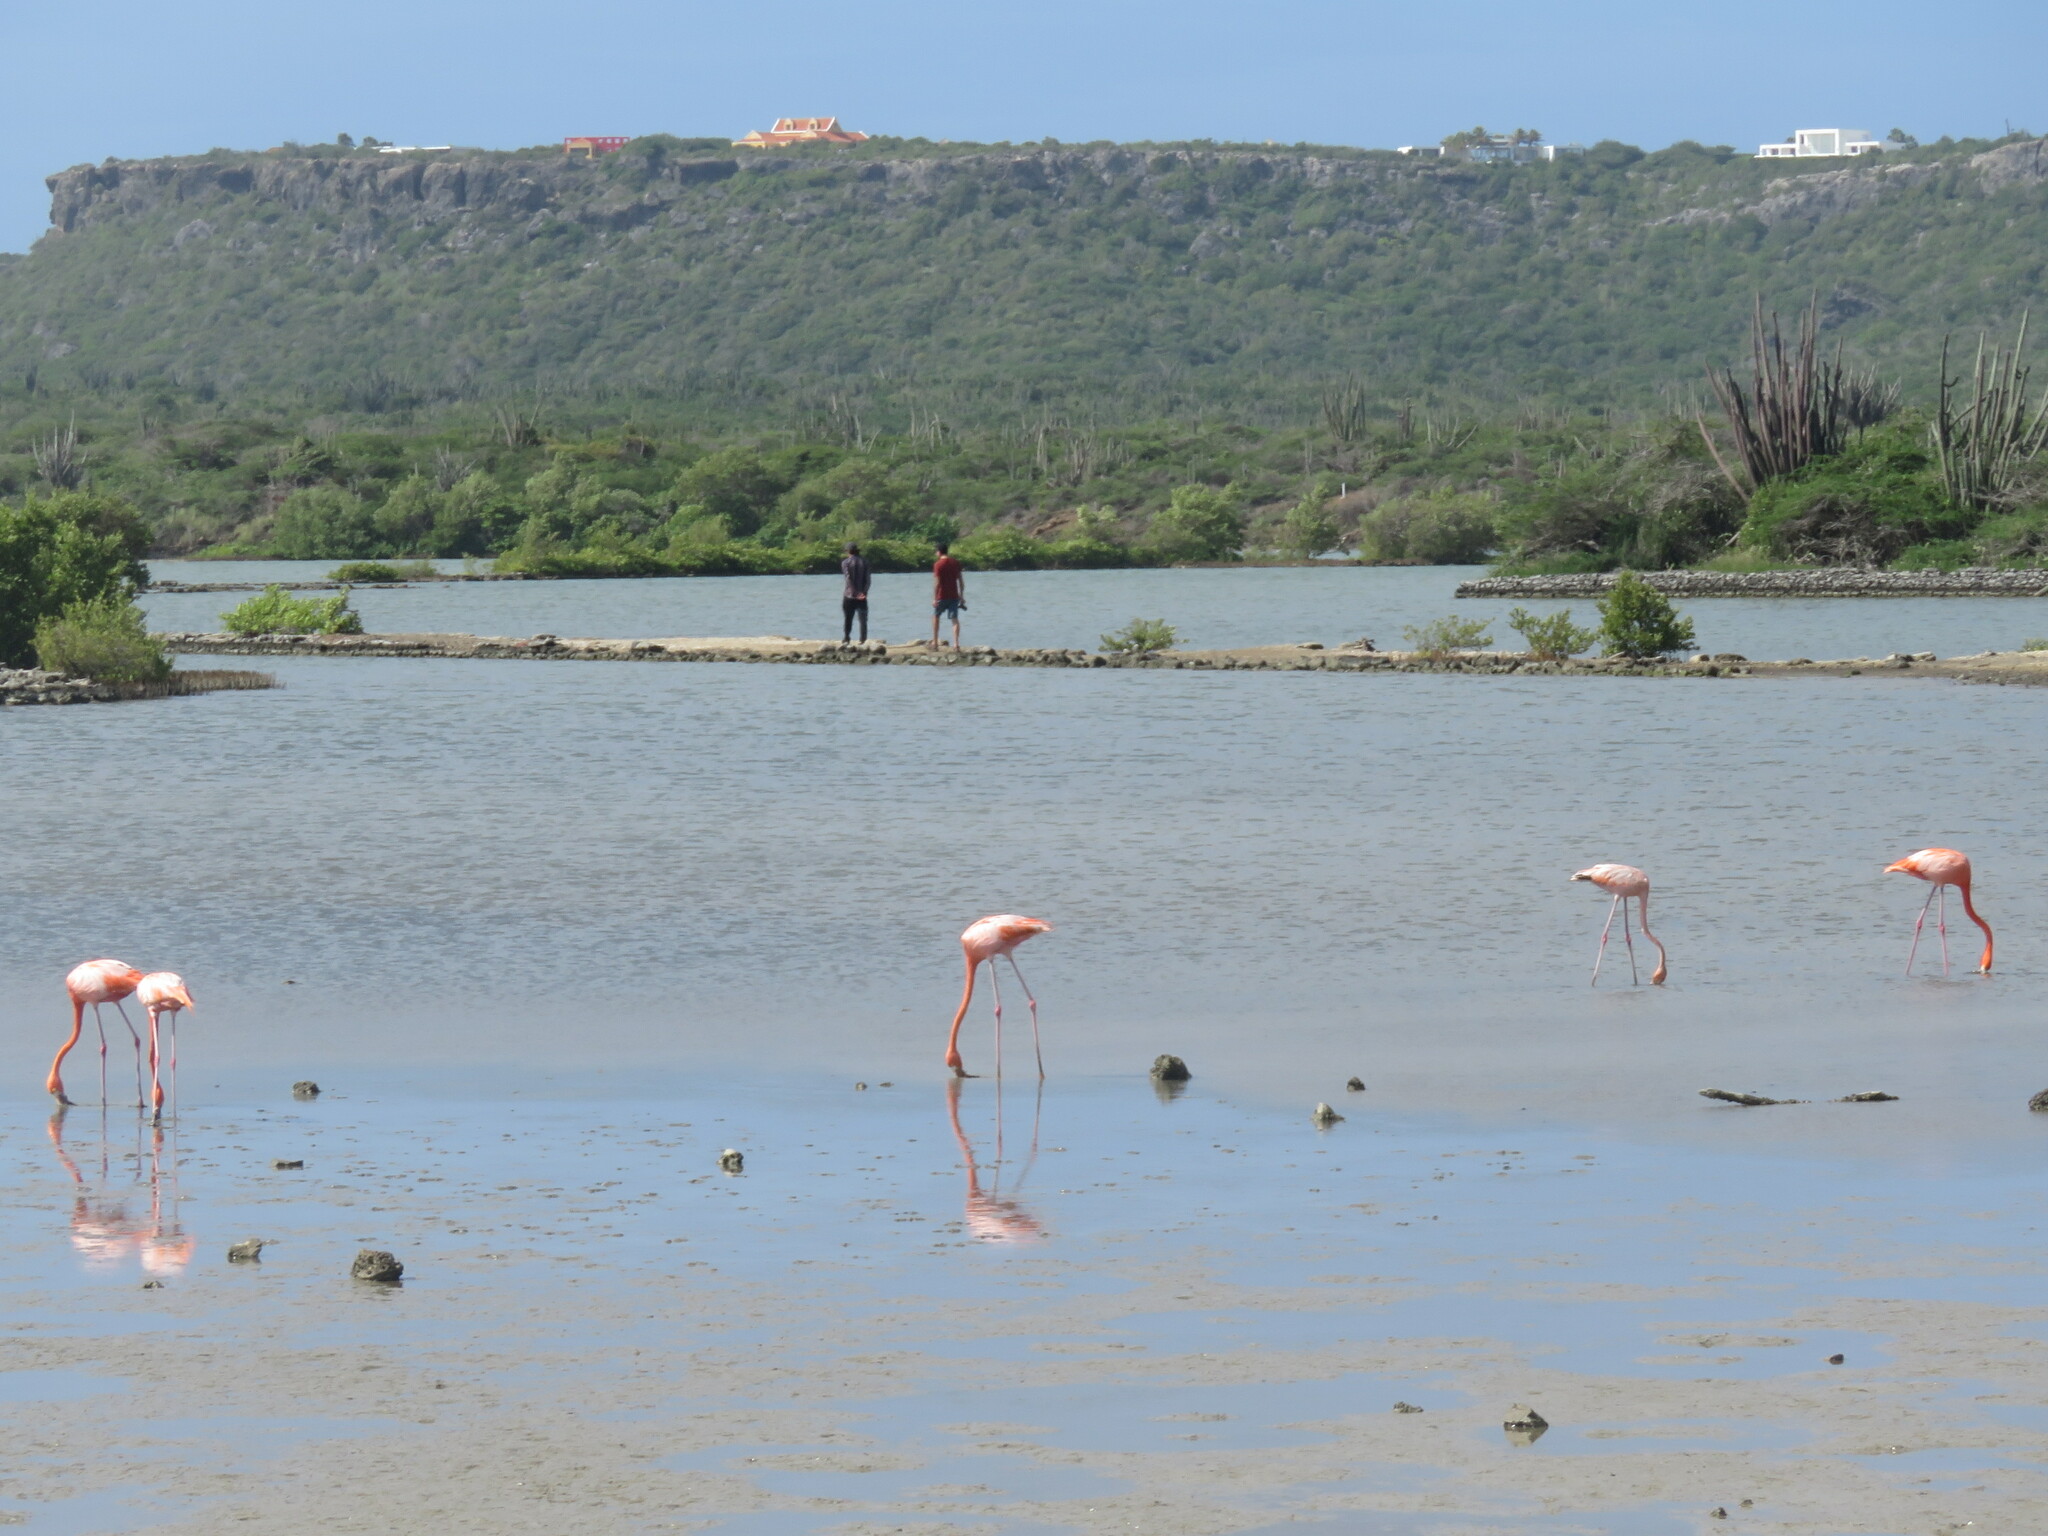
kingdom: Animalia
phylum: Chordata
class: Aves
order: Phoenicopteriformes
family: Phoenicopteridae
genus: Phoenicopterus
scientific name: Phoenicopterus ruber
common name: American flamingo
